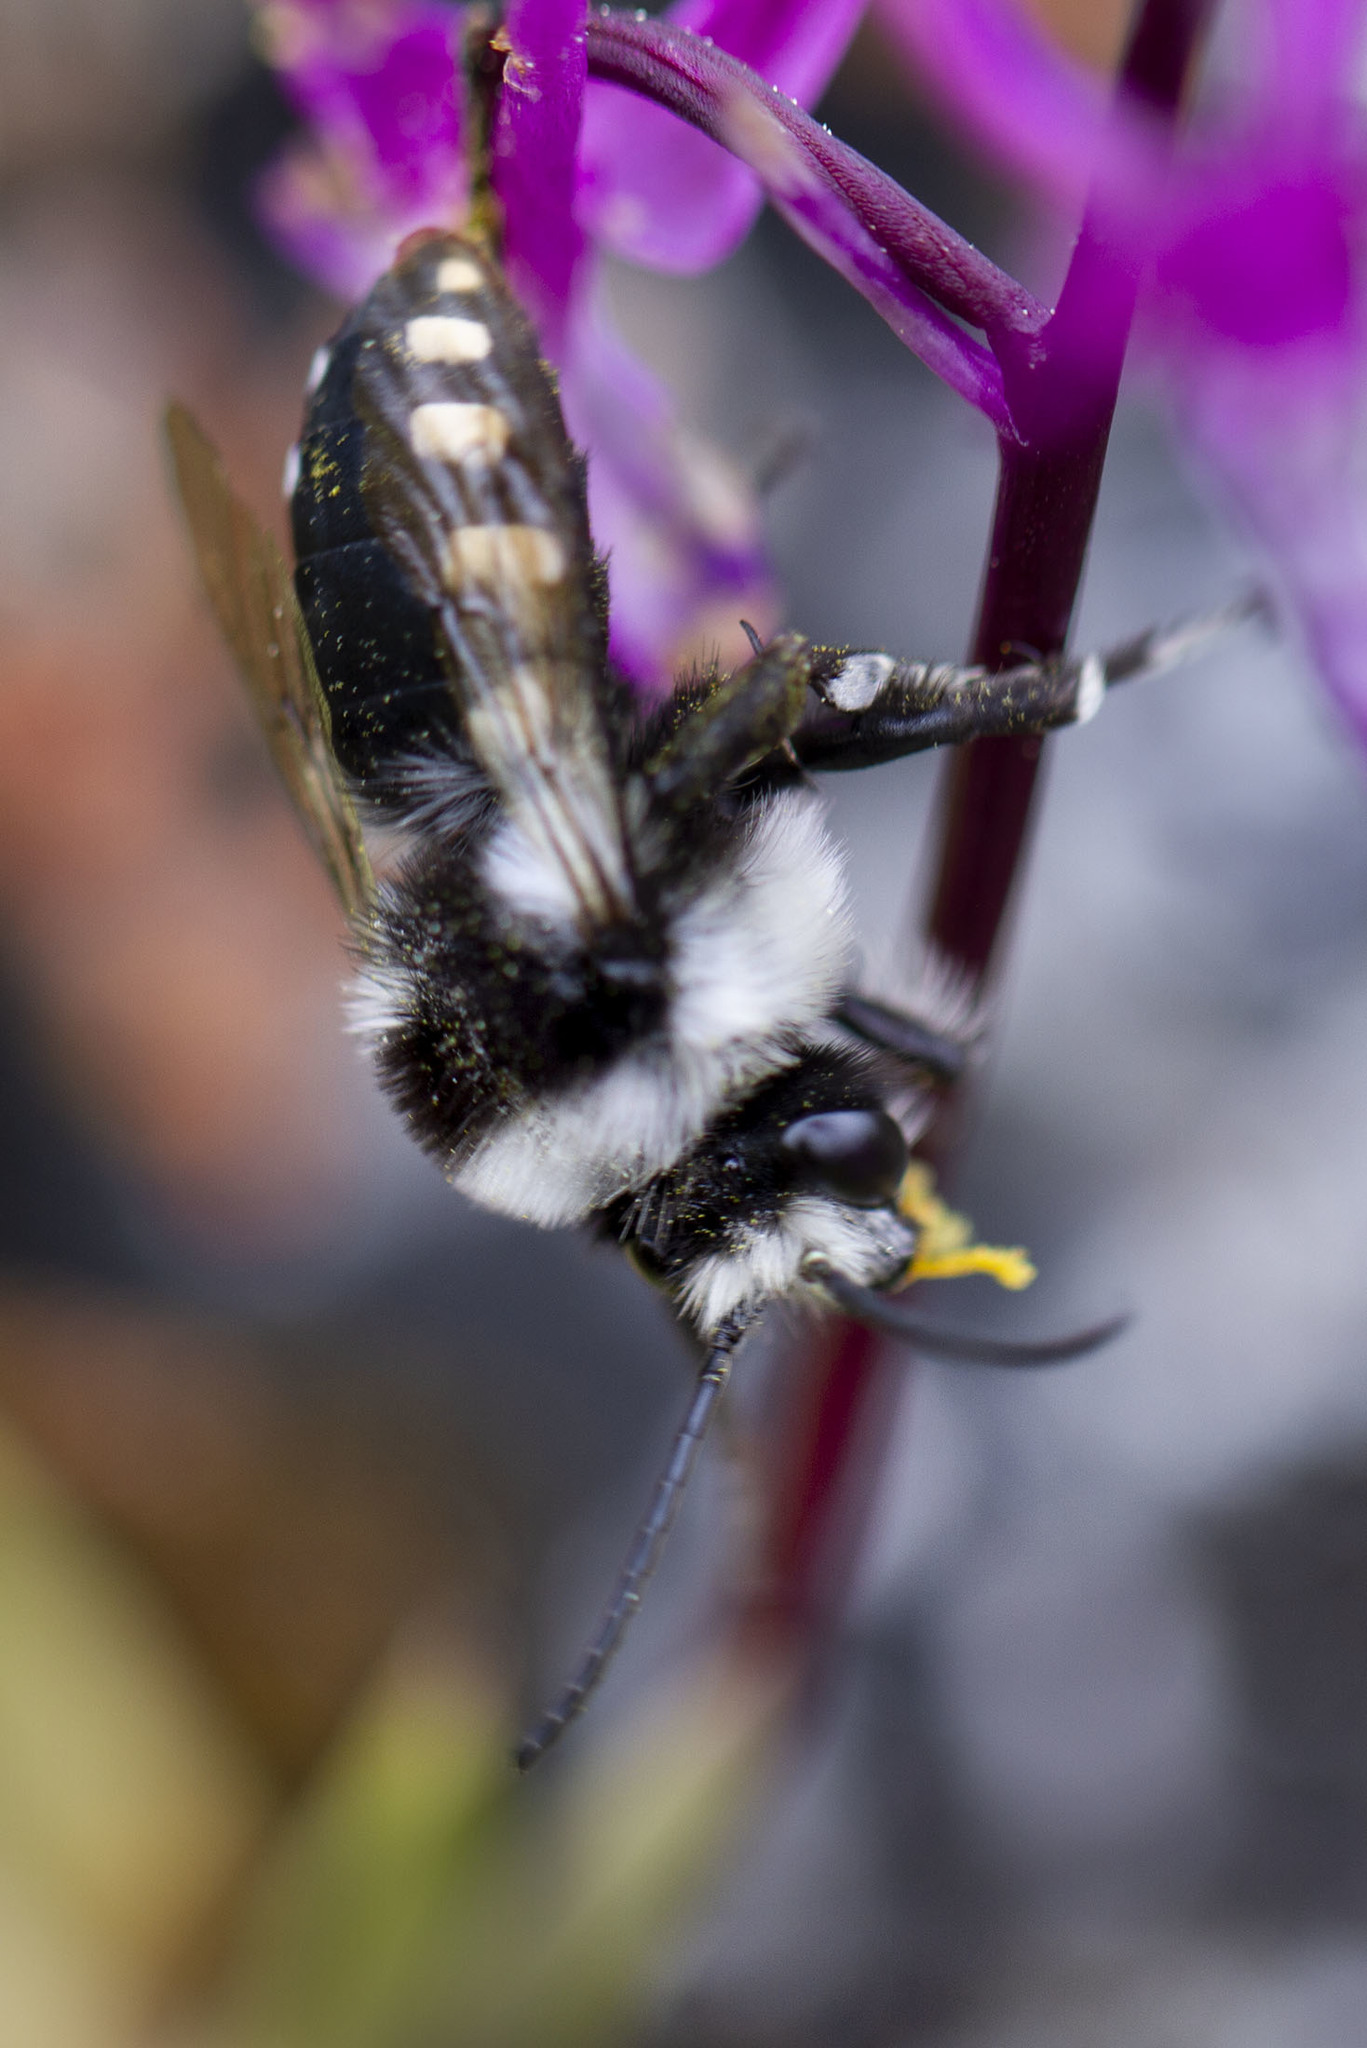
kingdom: Animalia
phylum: Arthropoda
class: Insecta
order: Hymenoptera
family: Apidae
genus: Melecta
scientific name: Melecta obscura
